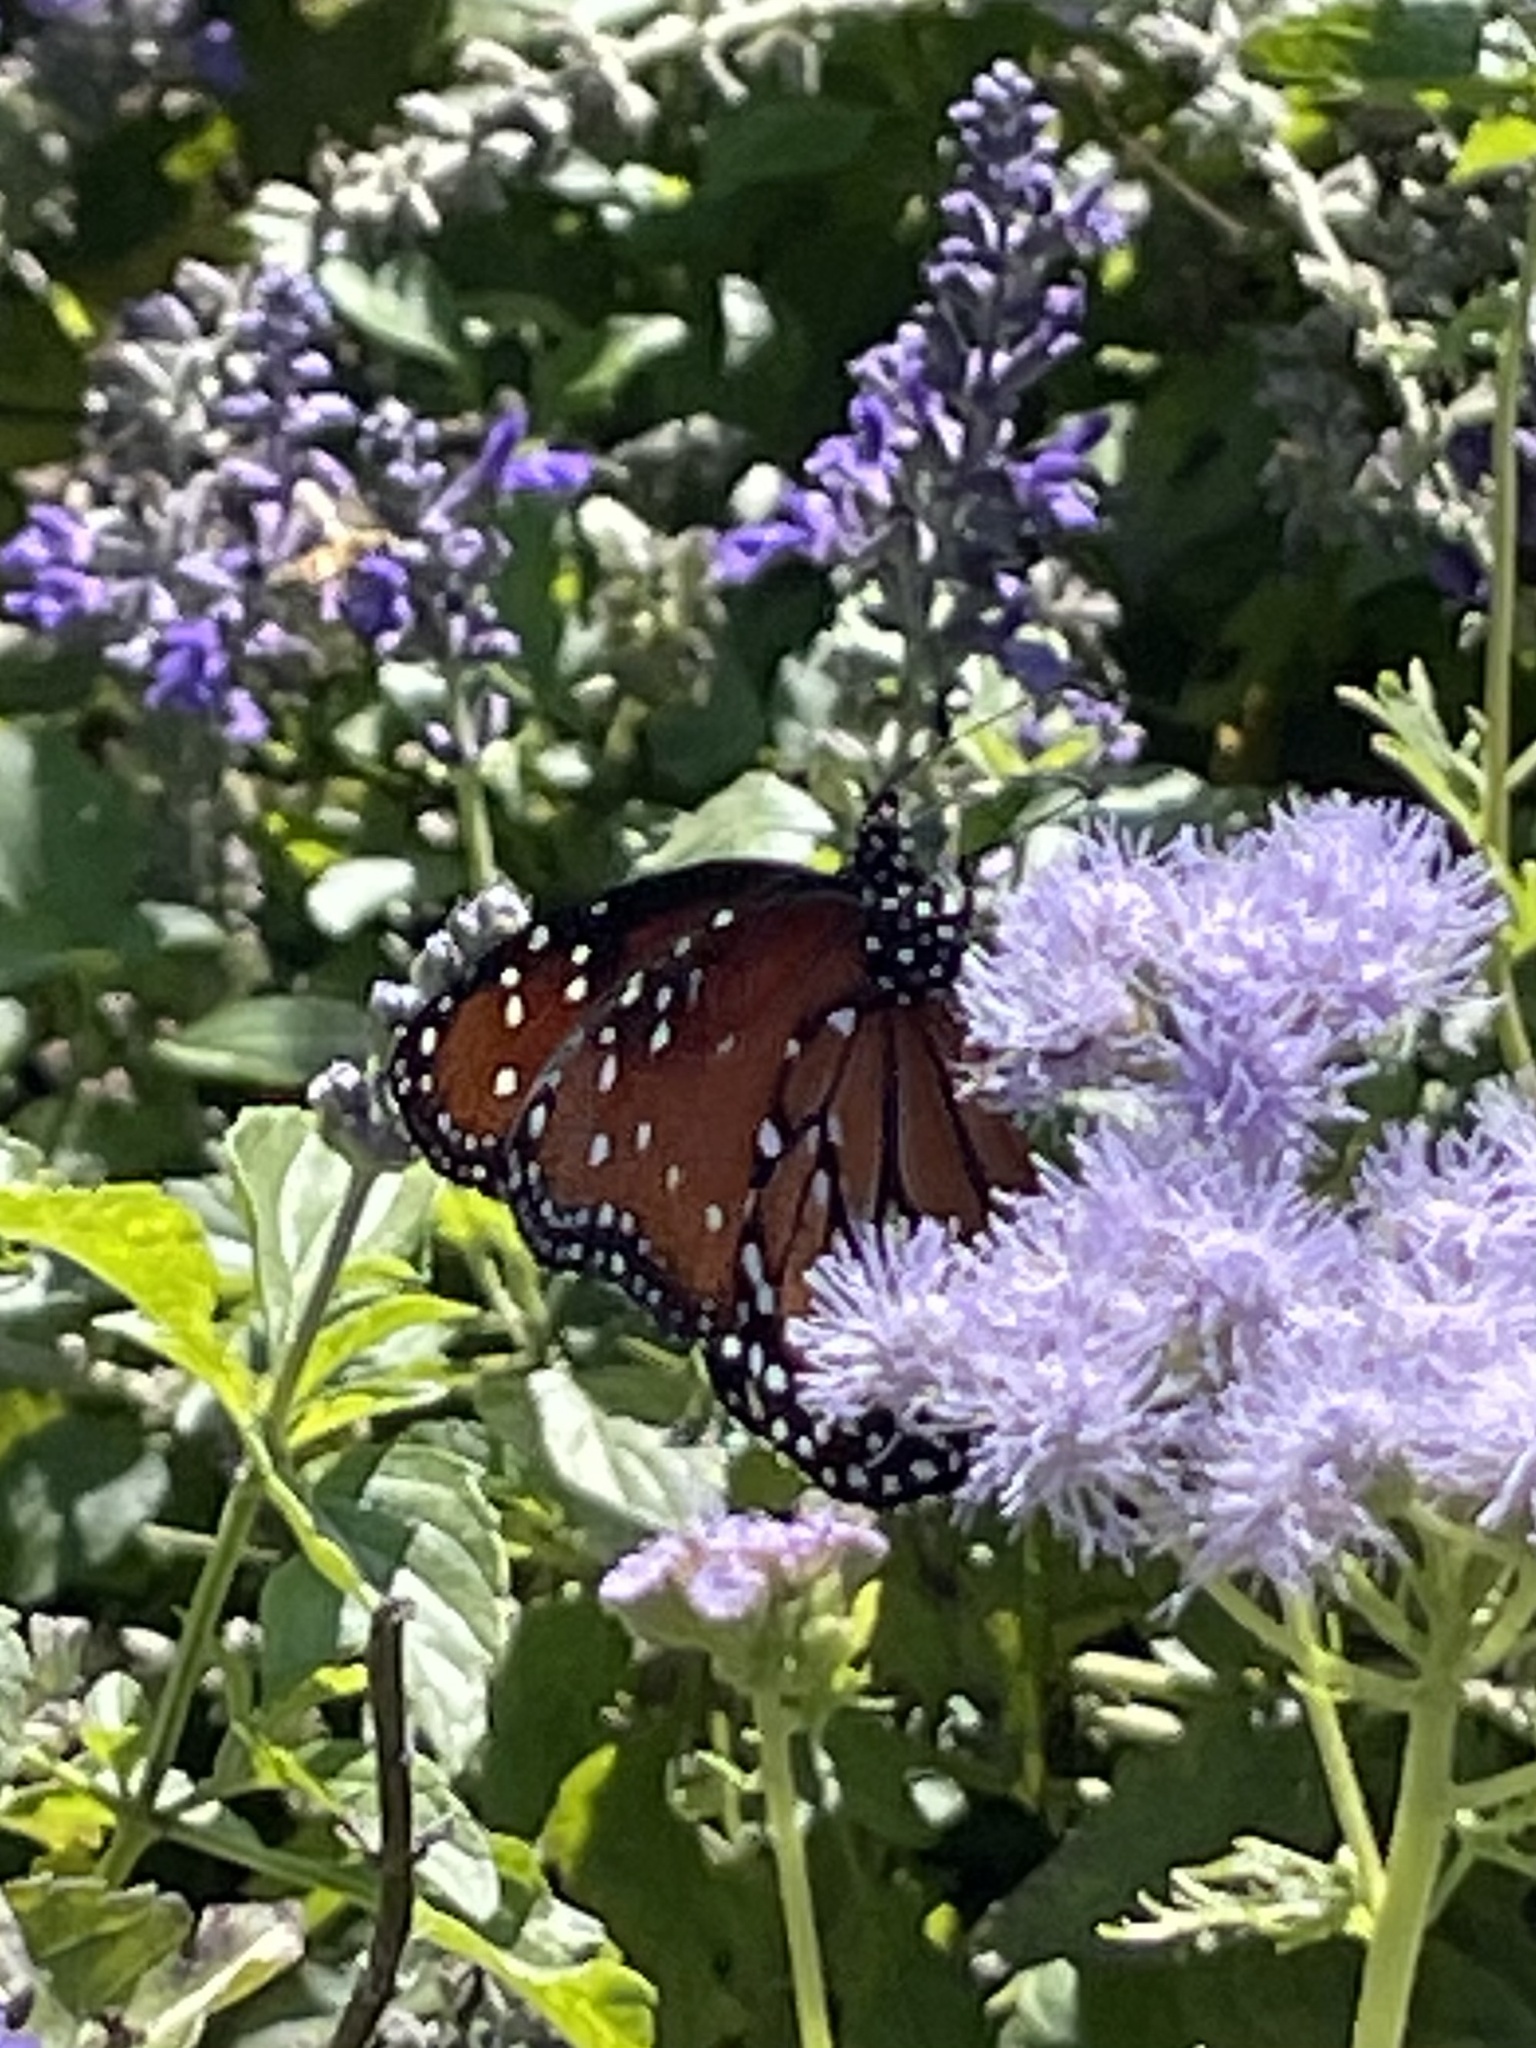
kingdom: Animalia
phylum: Arthropoda
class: Insecta
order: Lepidoptera
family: Nymphalidae
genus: Danaus
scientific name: Danaus gilippus
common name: Queen
